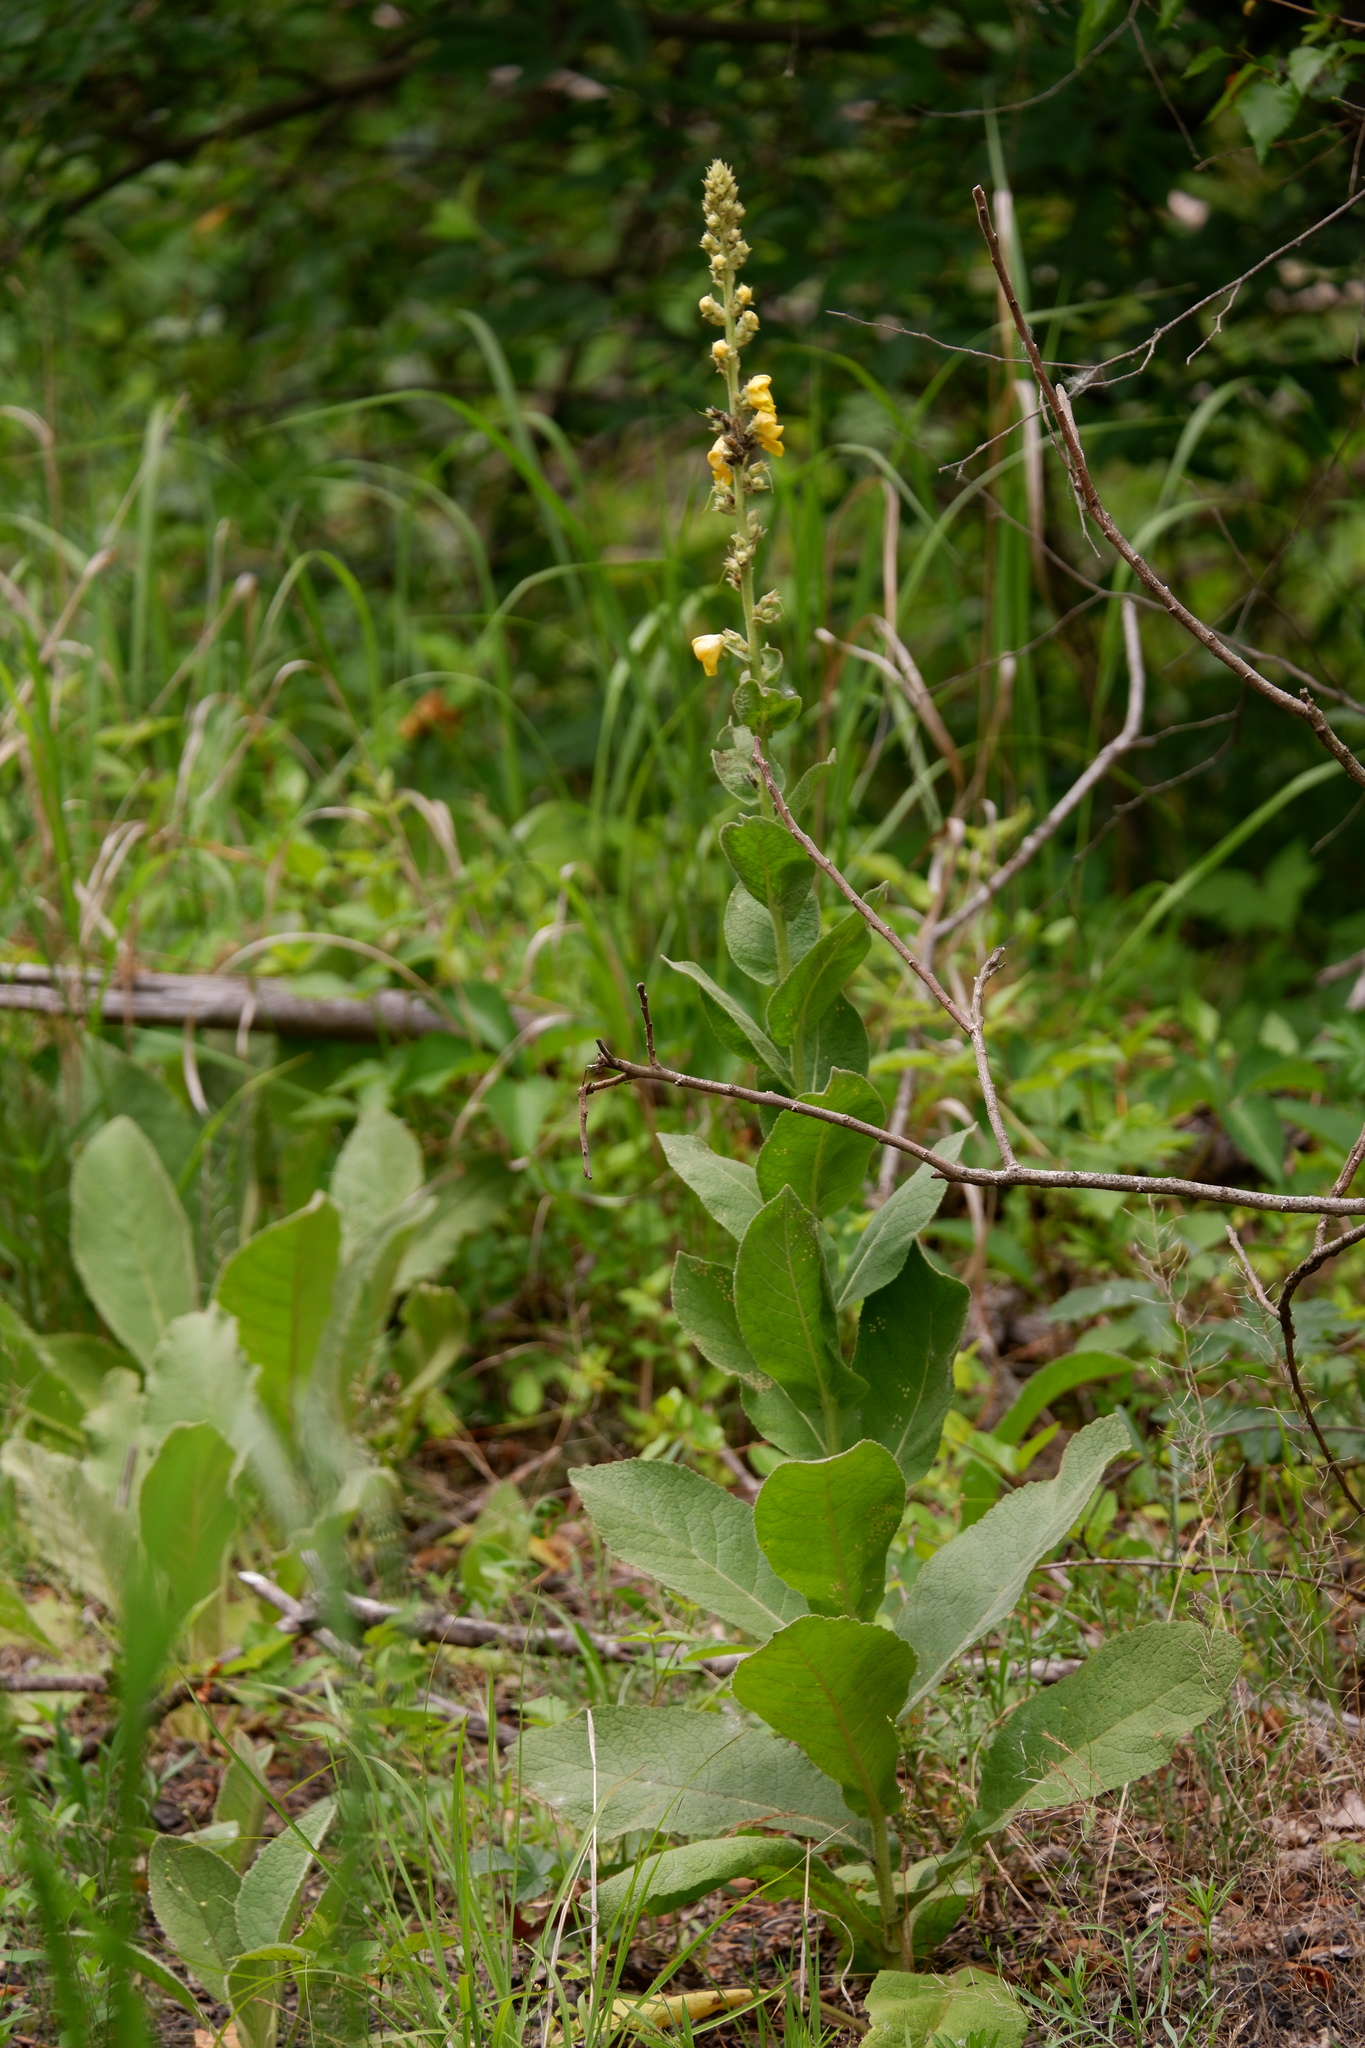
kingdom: Plantae
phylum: Tracheophyta
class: Magnoliopsida
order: Lamiales
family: Scrophulariaceae
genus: Verbascum
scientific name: Verbascum phlomoides
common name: Orange mullein
